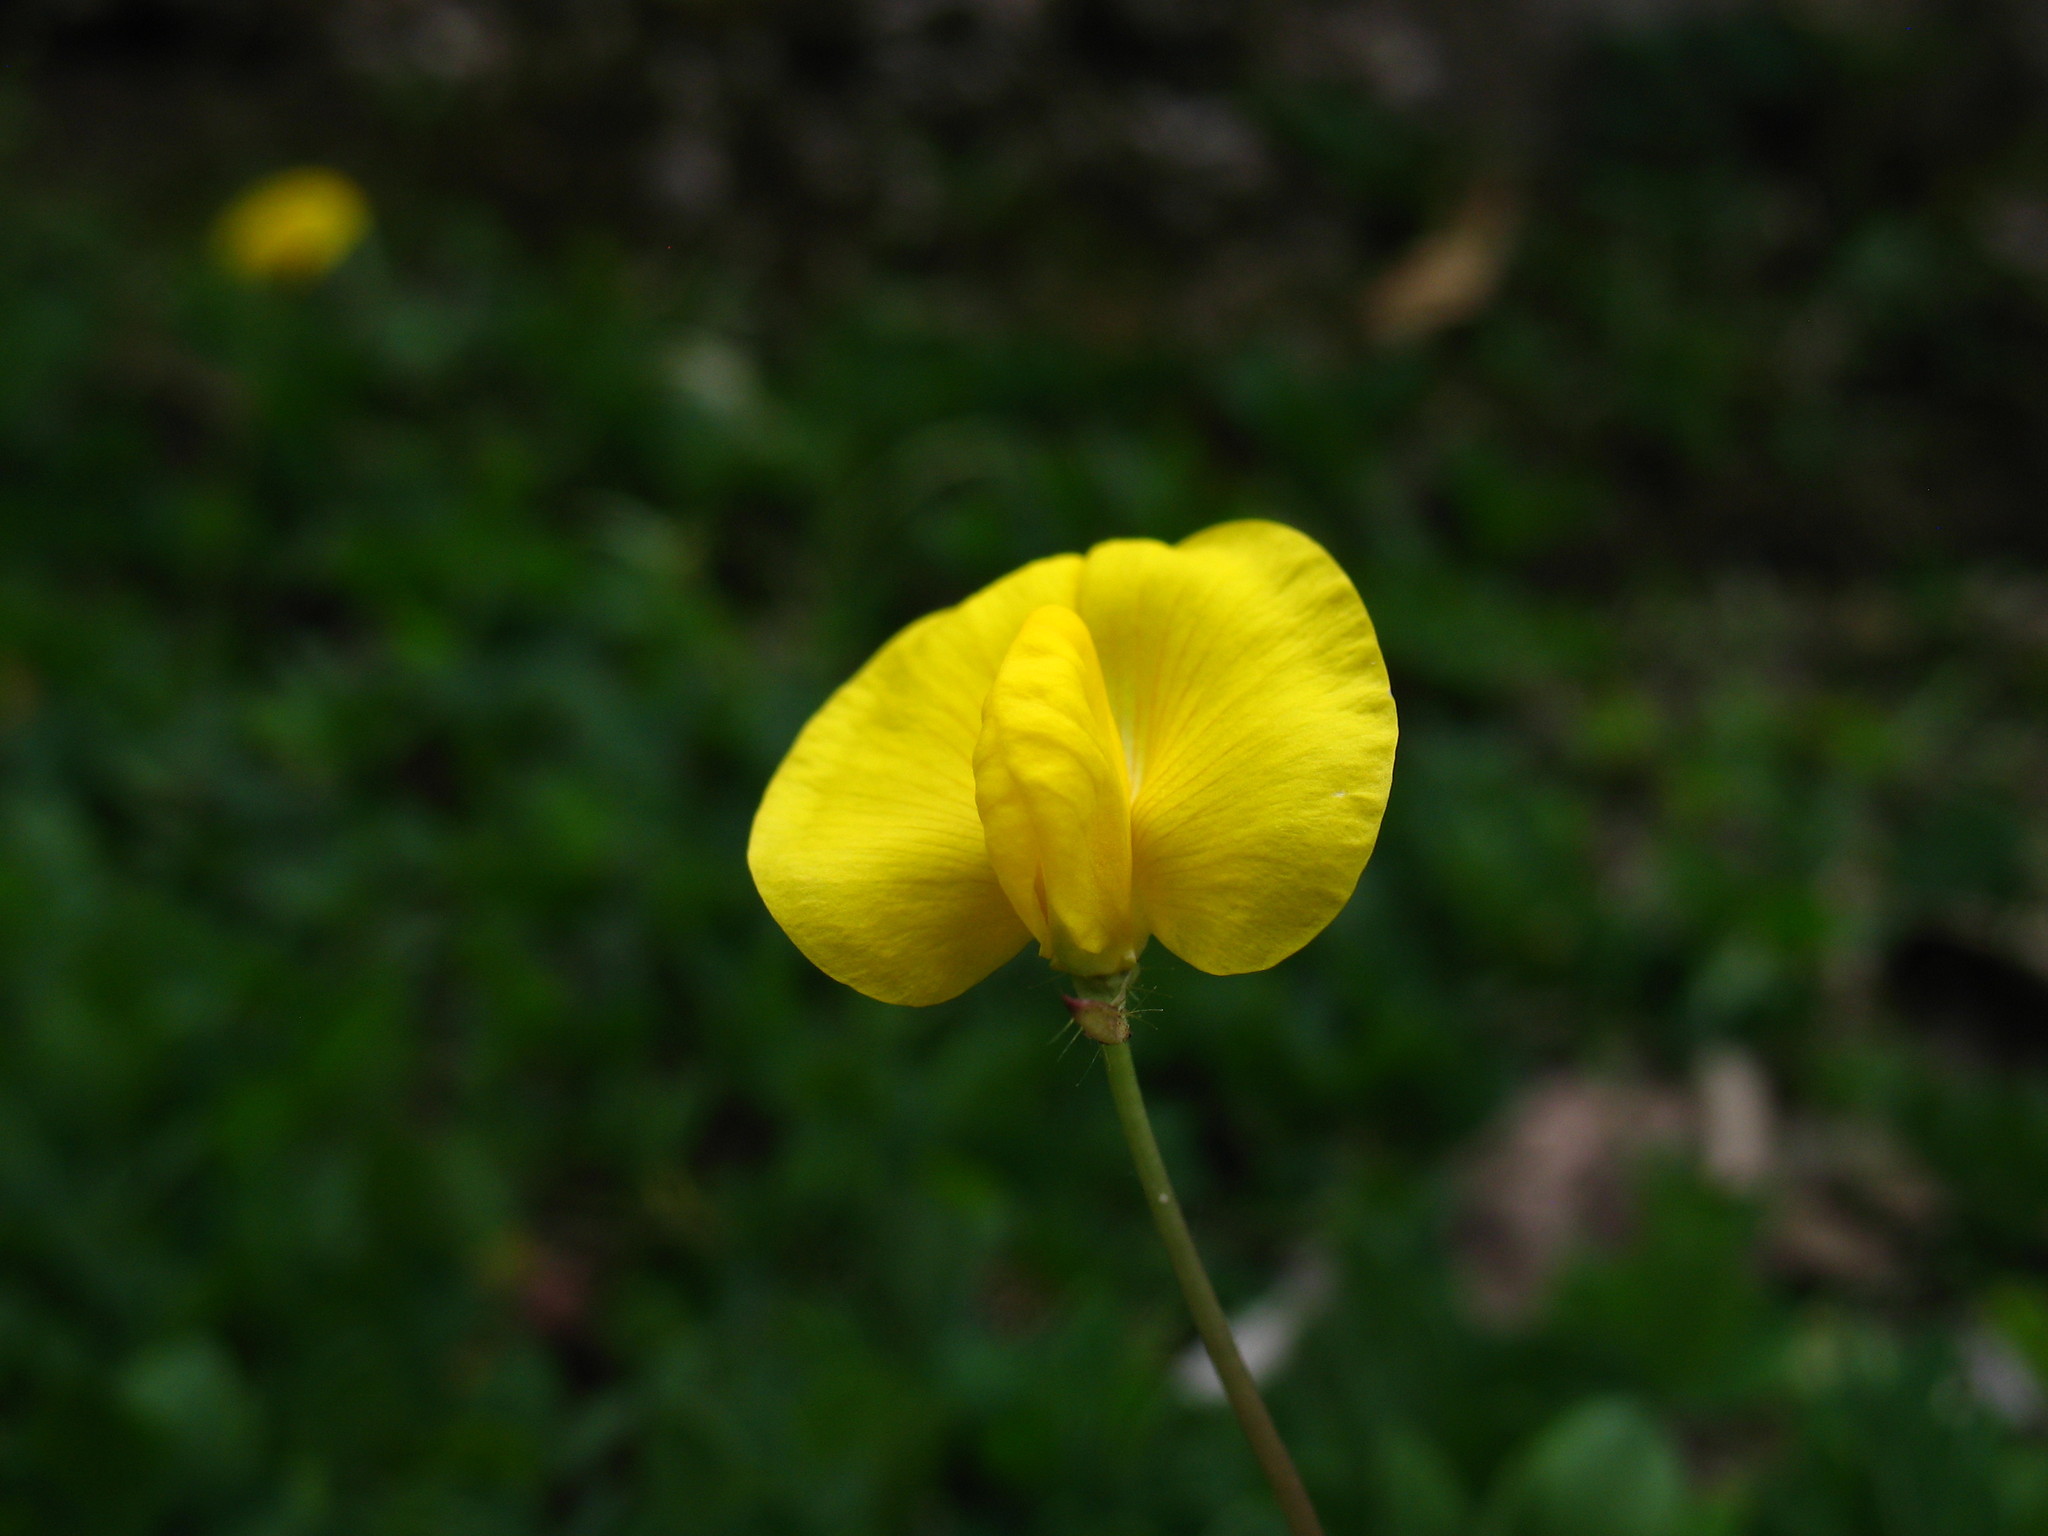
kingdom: Plantae
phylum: Tracheophyta
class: Magnoliopsida
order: Fabales
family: Fabaceae
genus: Arachis
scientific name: Arachis pintoi
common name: Pinto peanut
